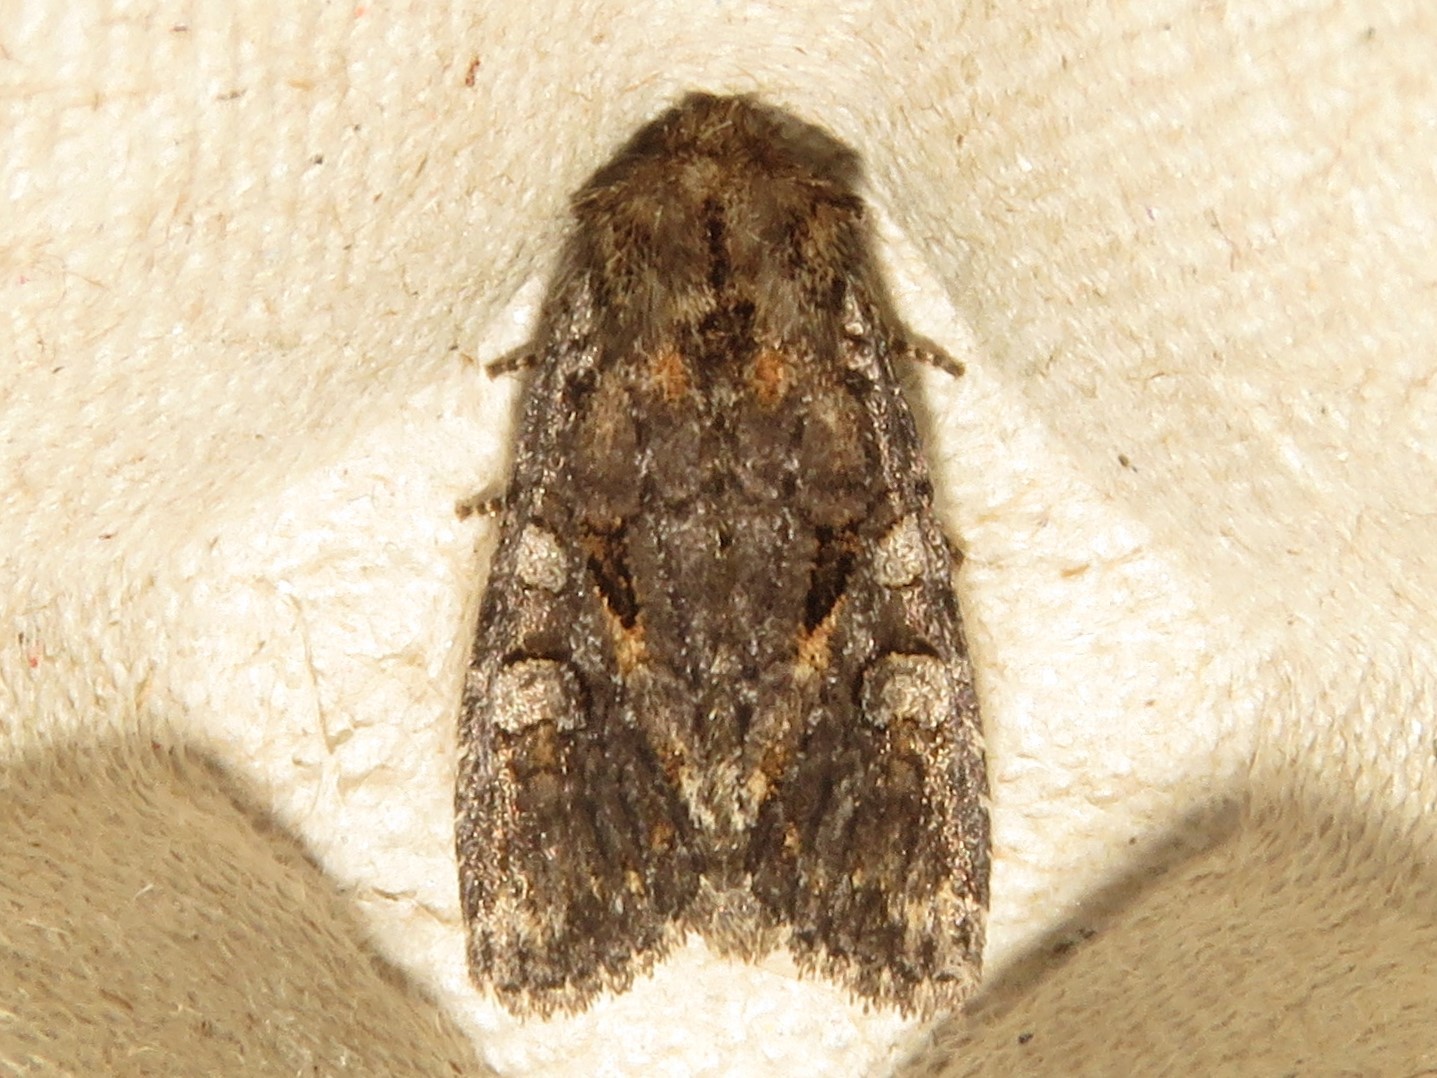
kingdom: Animalia
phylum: Arthropoda
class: Insecta
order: Lepidoptera
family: Noctuidae
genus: Orthodes
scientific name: Orthodes detracta
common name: Disparaged arches moth
